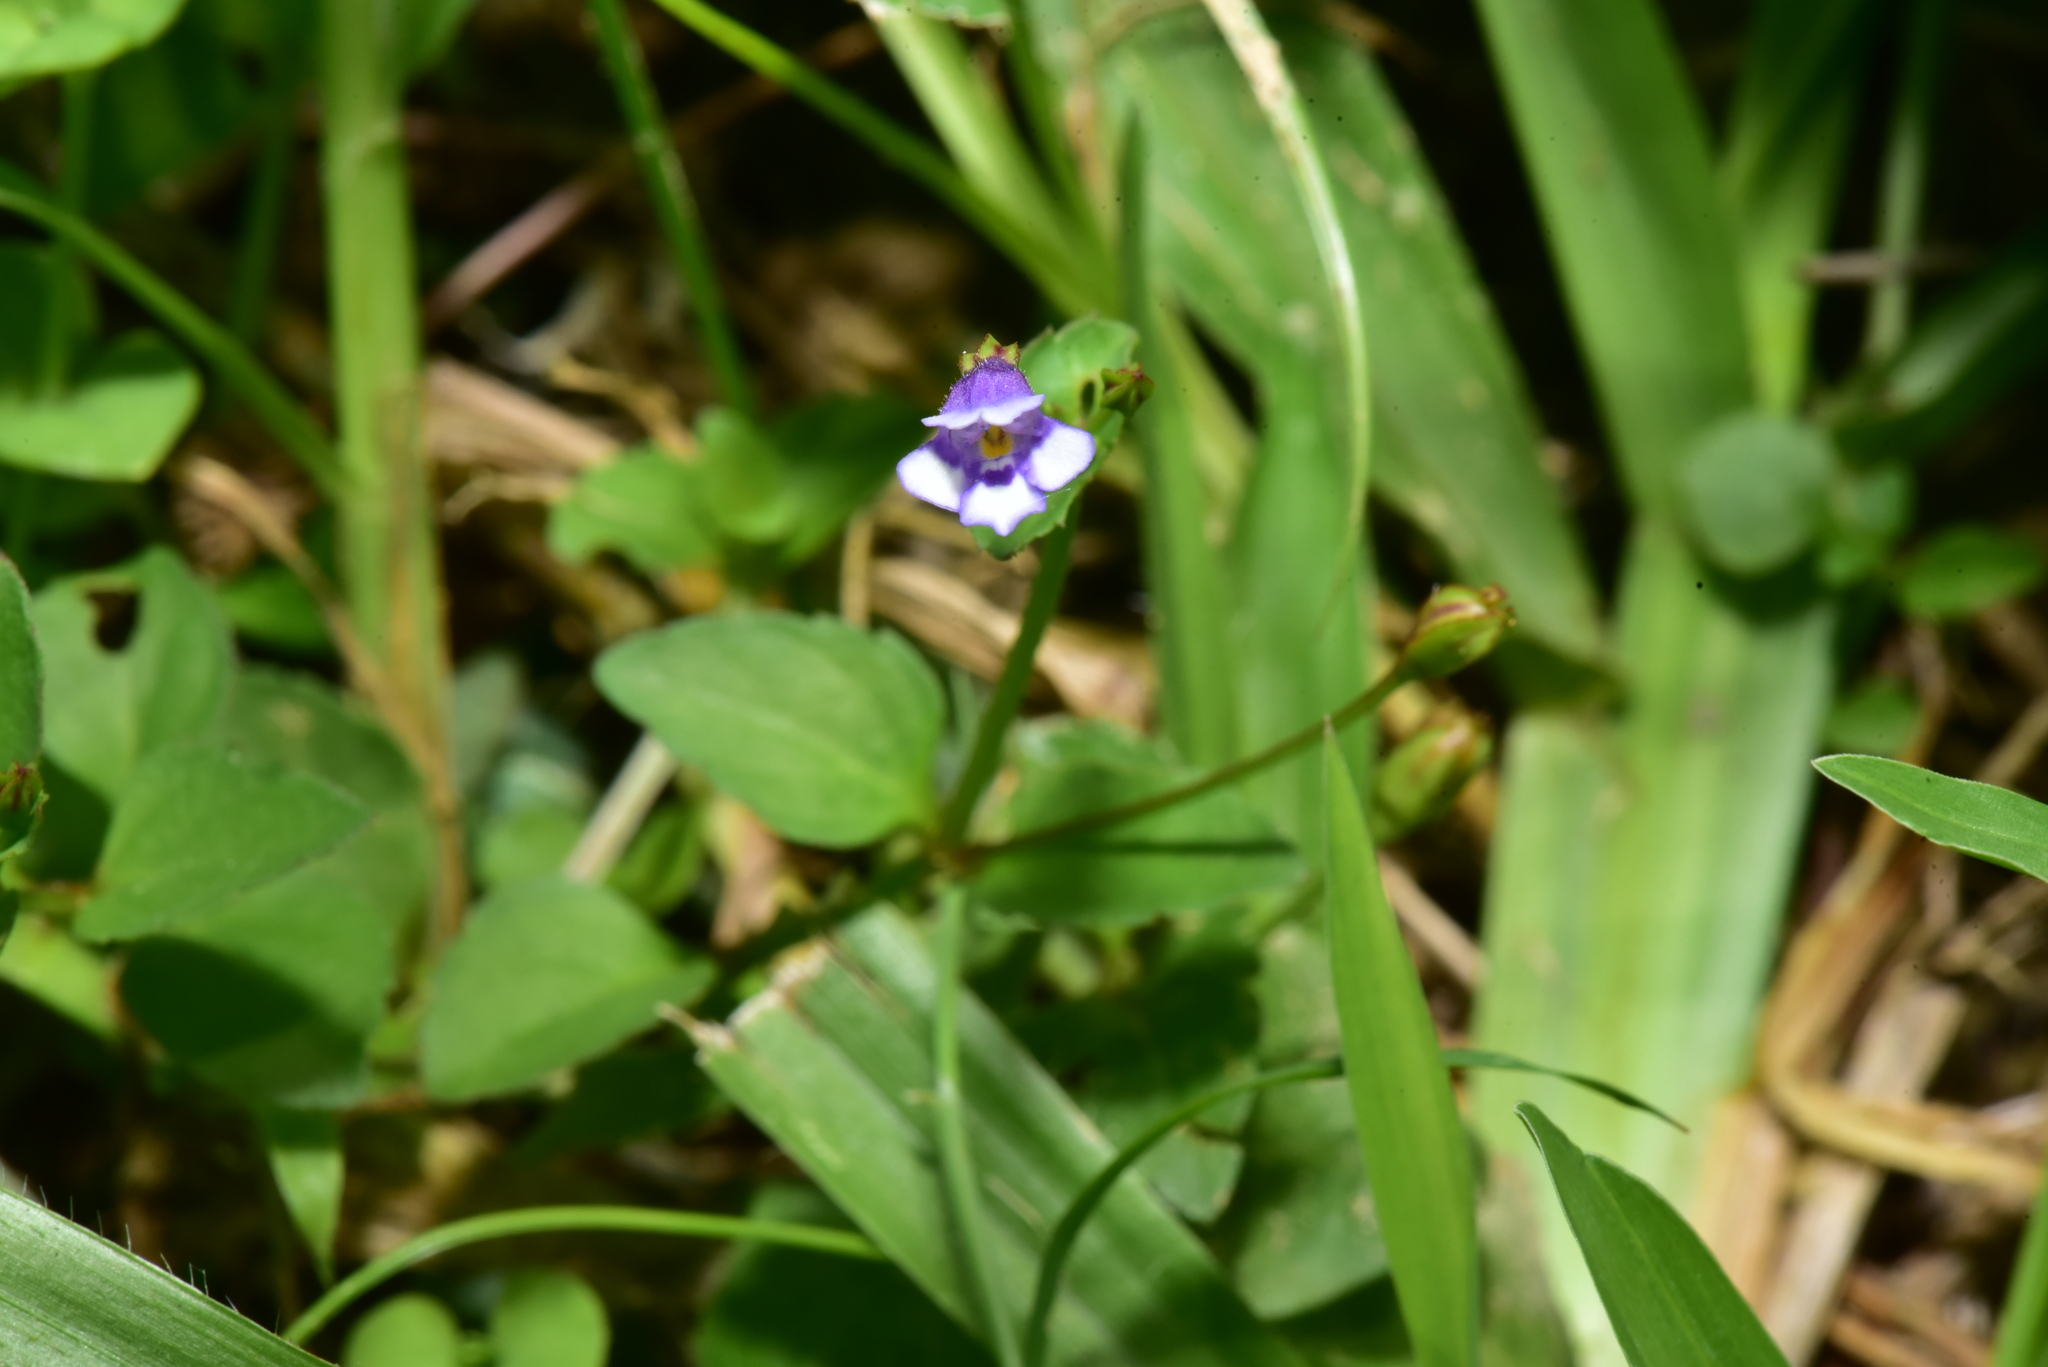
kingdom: Plantae
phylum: Tracheophyta
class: Magnoliopsida
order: Lamiales
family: Linderniaceae
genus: Torenia
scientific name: Torenia crustacea
